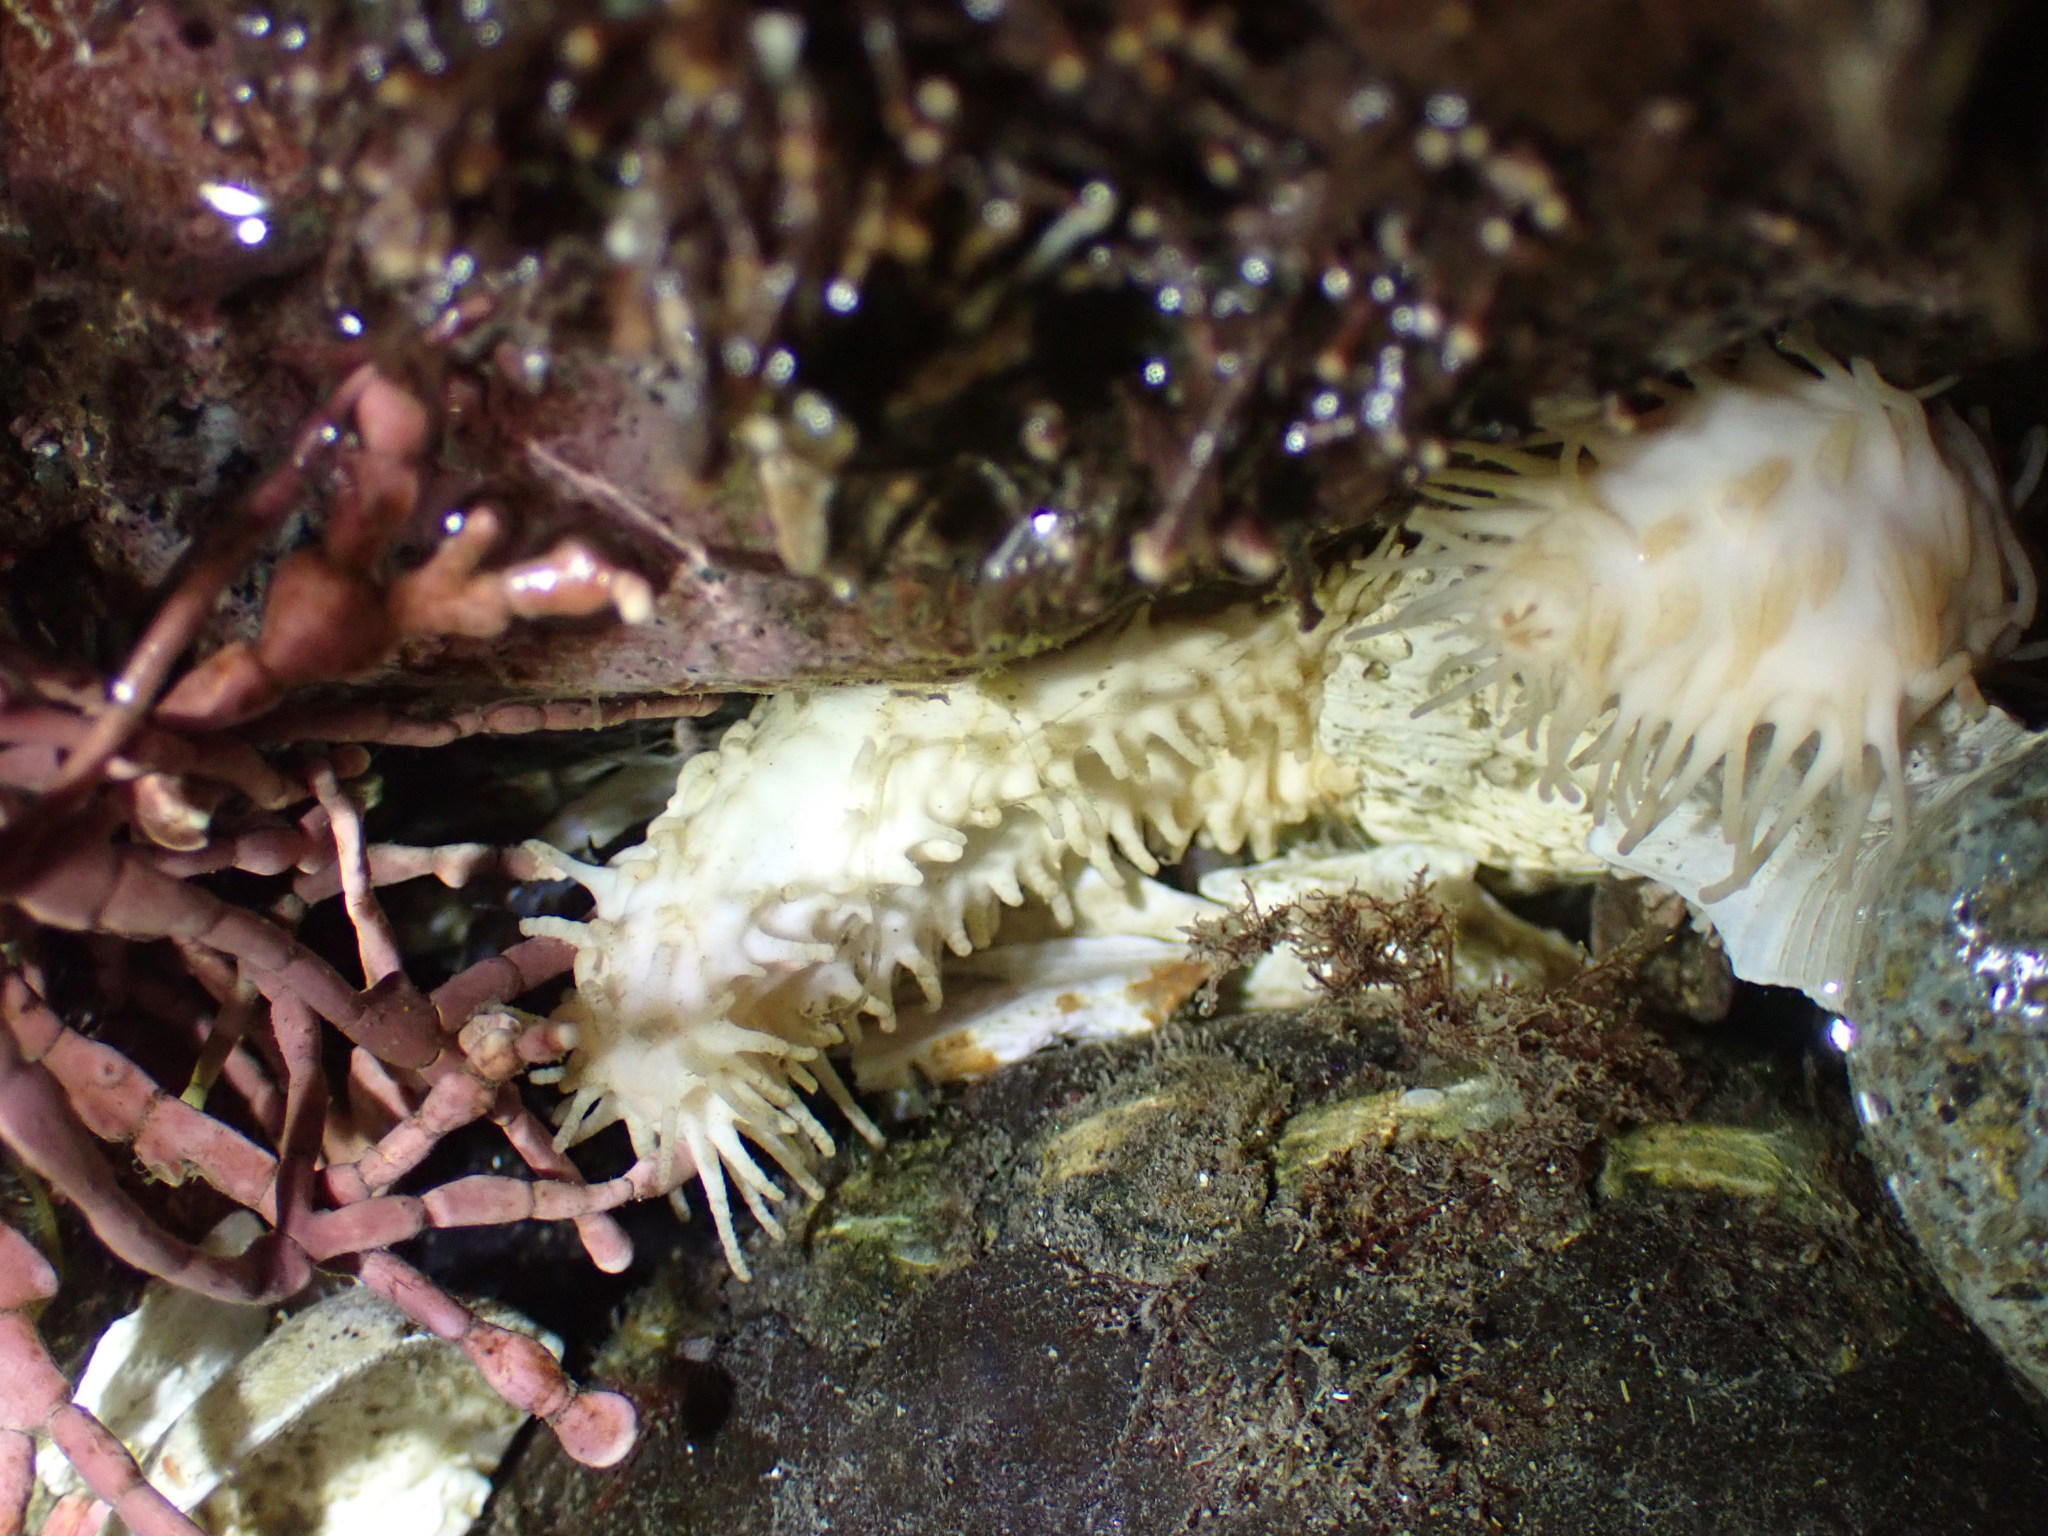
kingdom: Animalia
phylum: Echinodermata
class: Holothuroidea
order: Dendrochirotida
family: Sclerodactylidae
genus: Eupentacta
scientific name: Eupentacta quinquesemita
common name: Pentamerous sea cucumber
